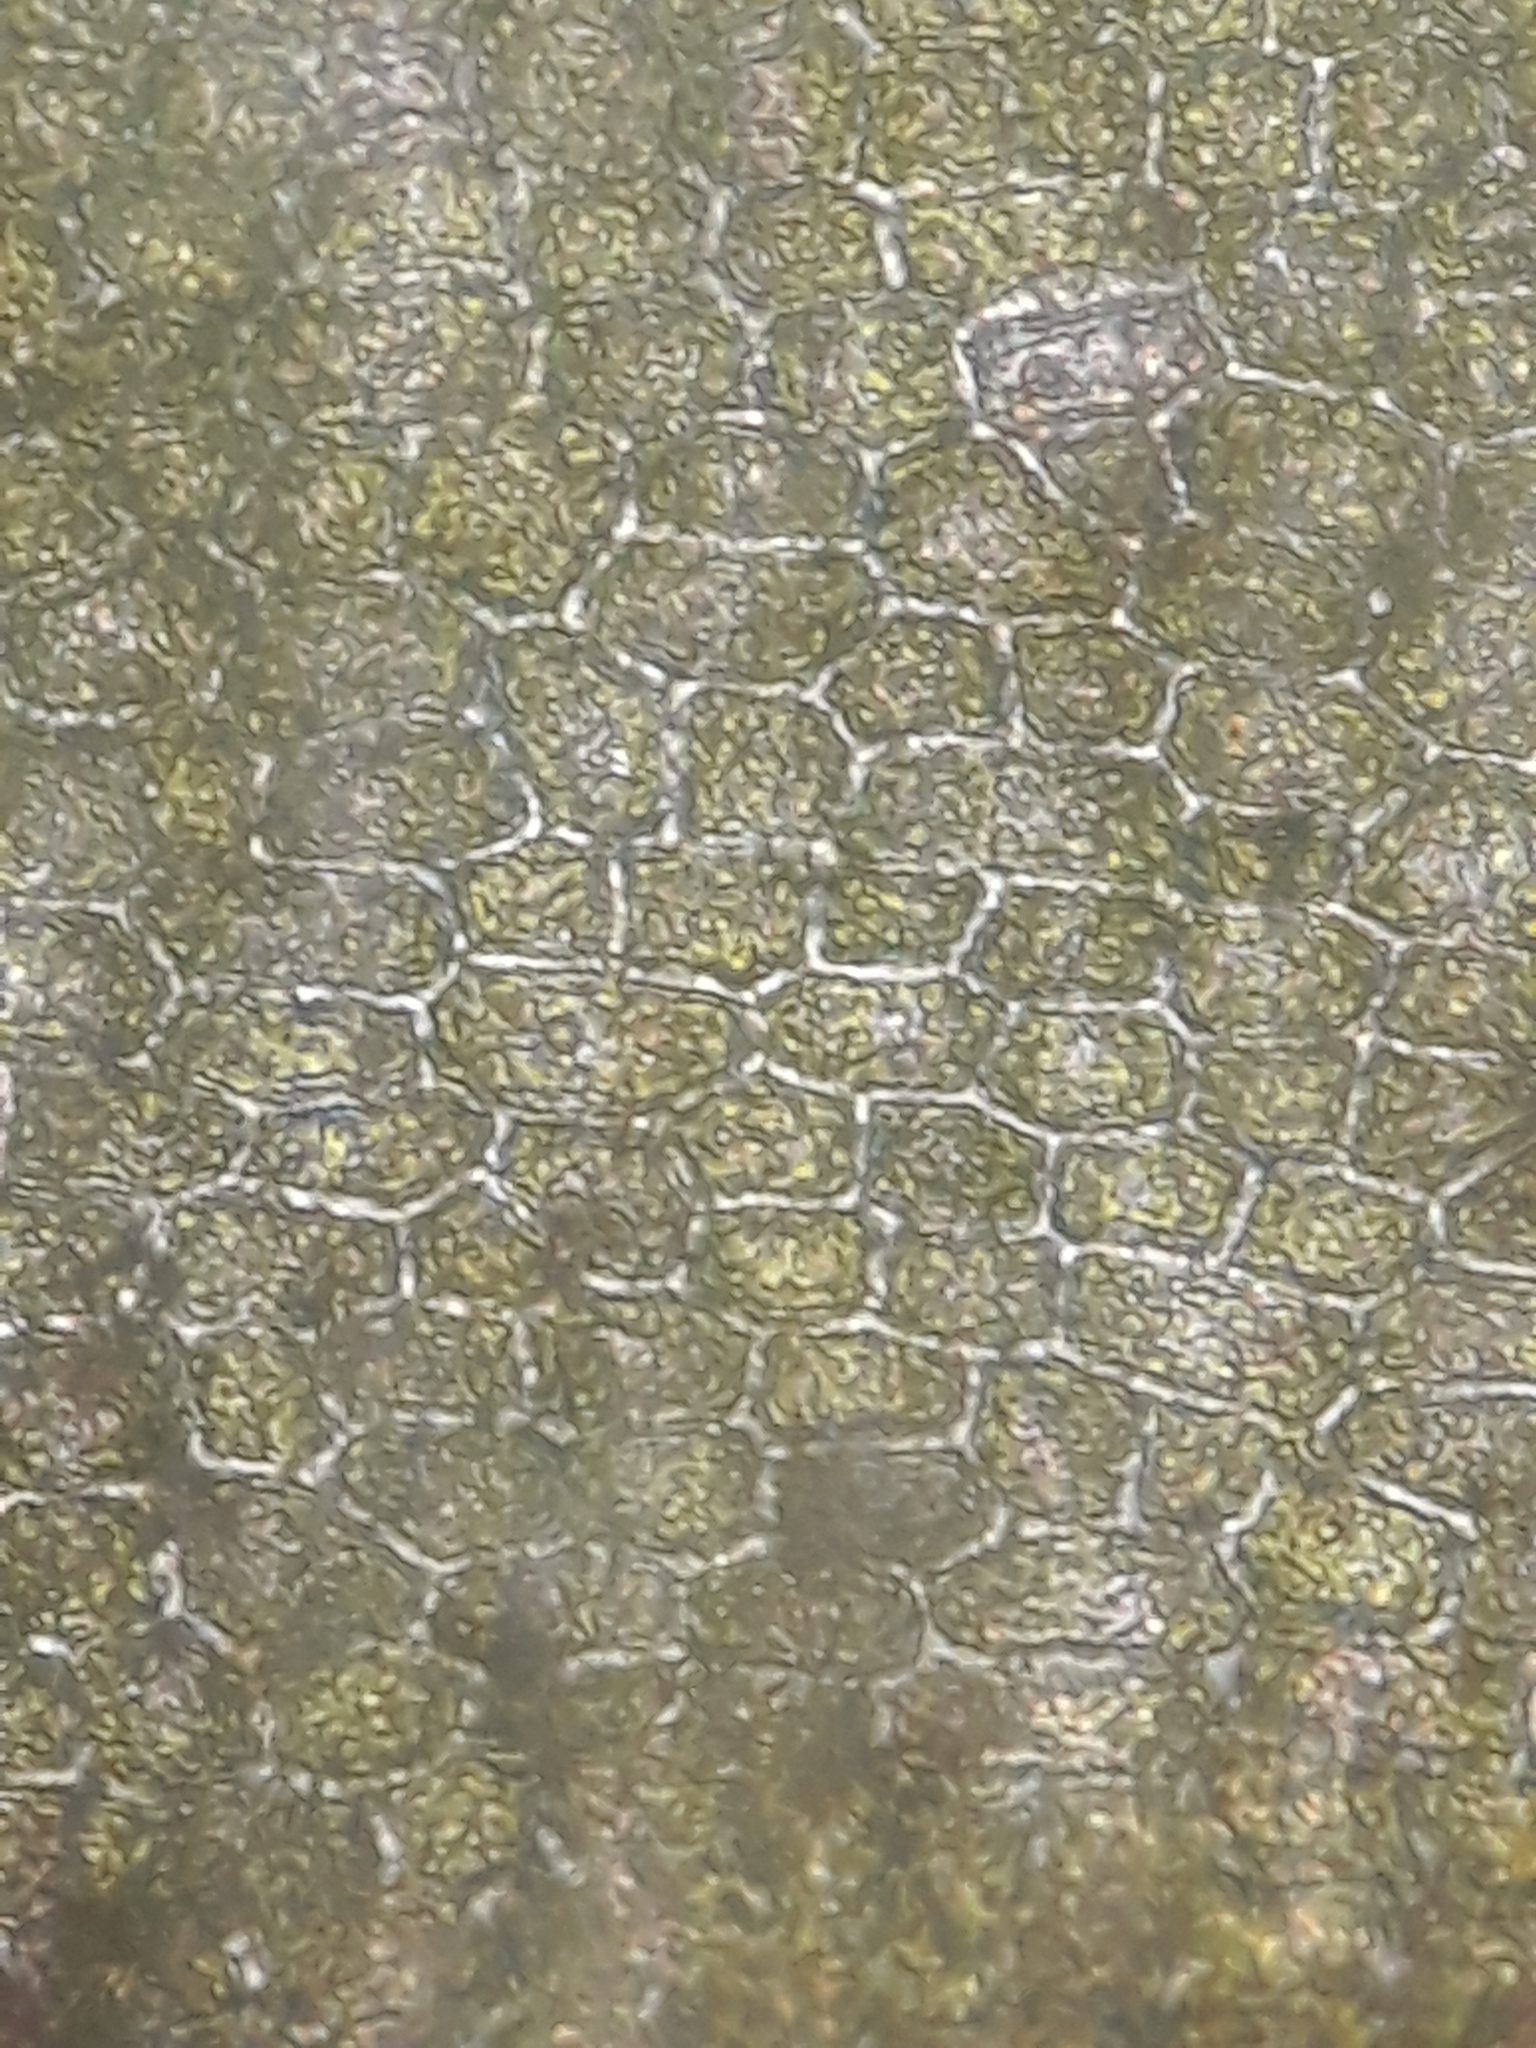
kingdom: Plantae
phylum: Marchantiophyta
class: Jungermanniopsida
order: Jungermanniales
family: Plagiochilaceae
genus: Dinckleria
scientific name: Dinckleria fruticella
